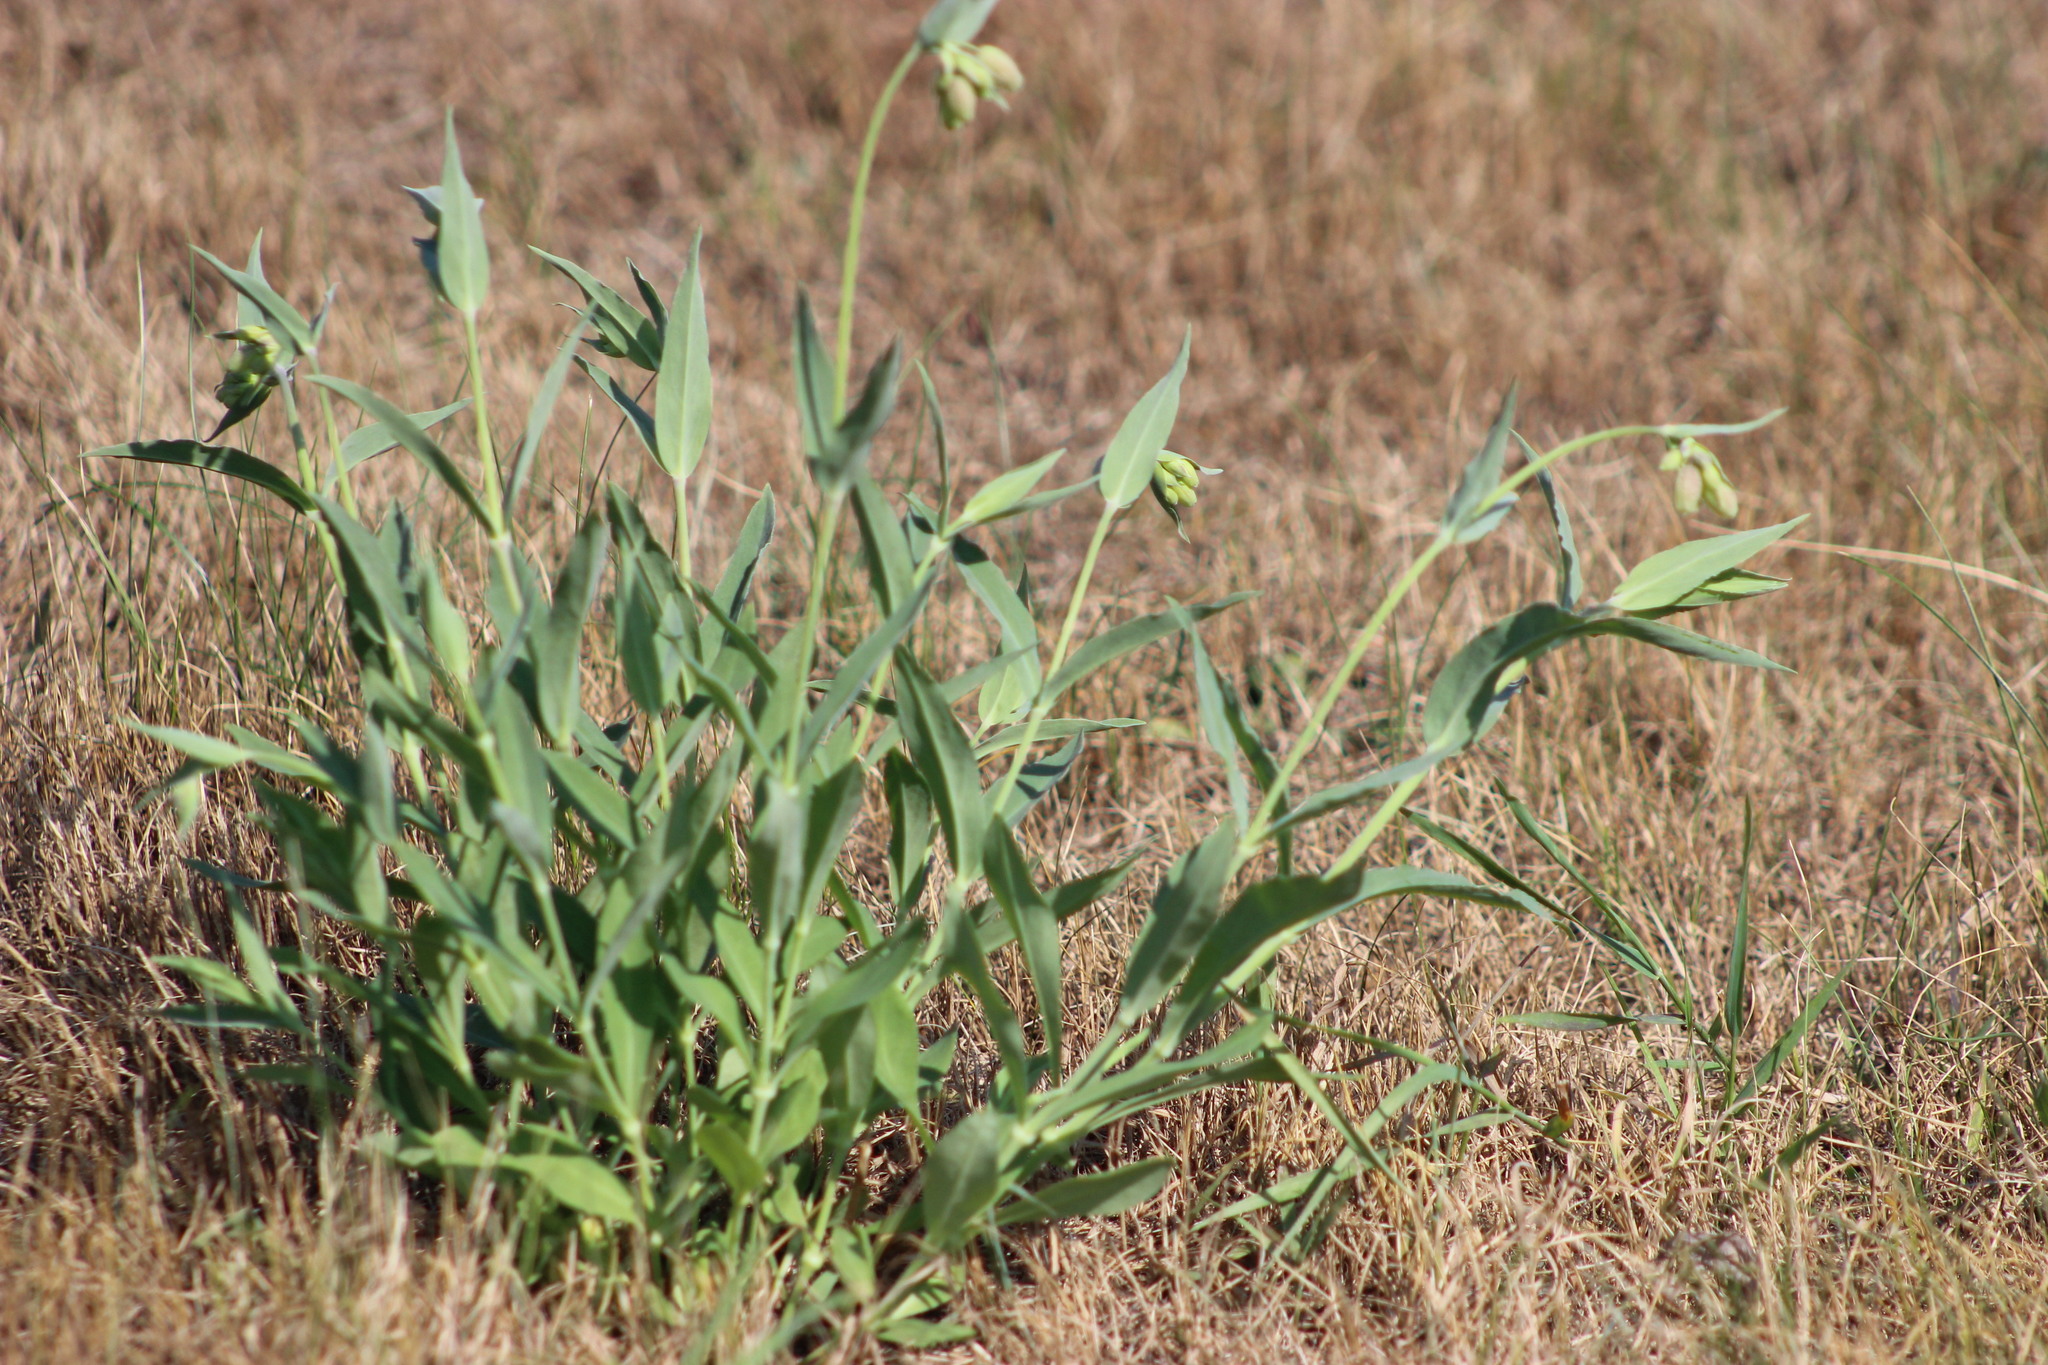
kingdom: Plantae
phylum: Tracheophyta
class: Magnoliopsida
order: Caryophyllales
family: Caryophyllaceae
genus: Silene
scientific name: Silene vulgaris
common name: Bladder campion
